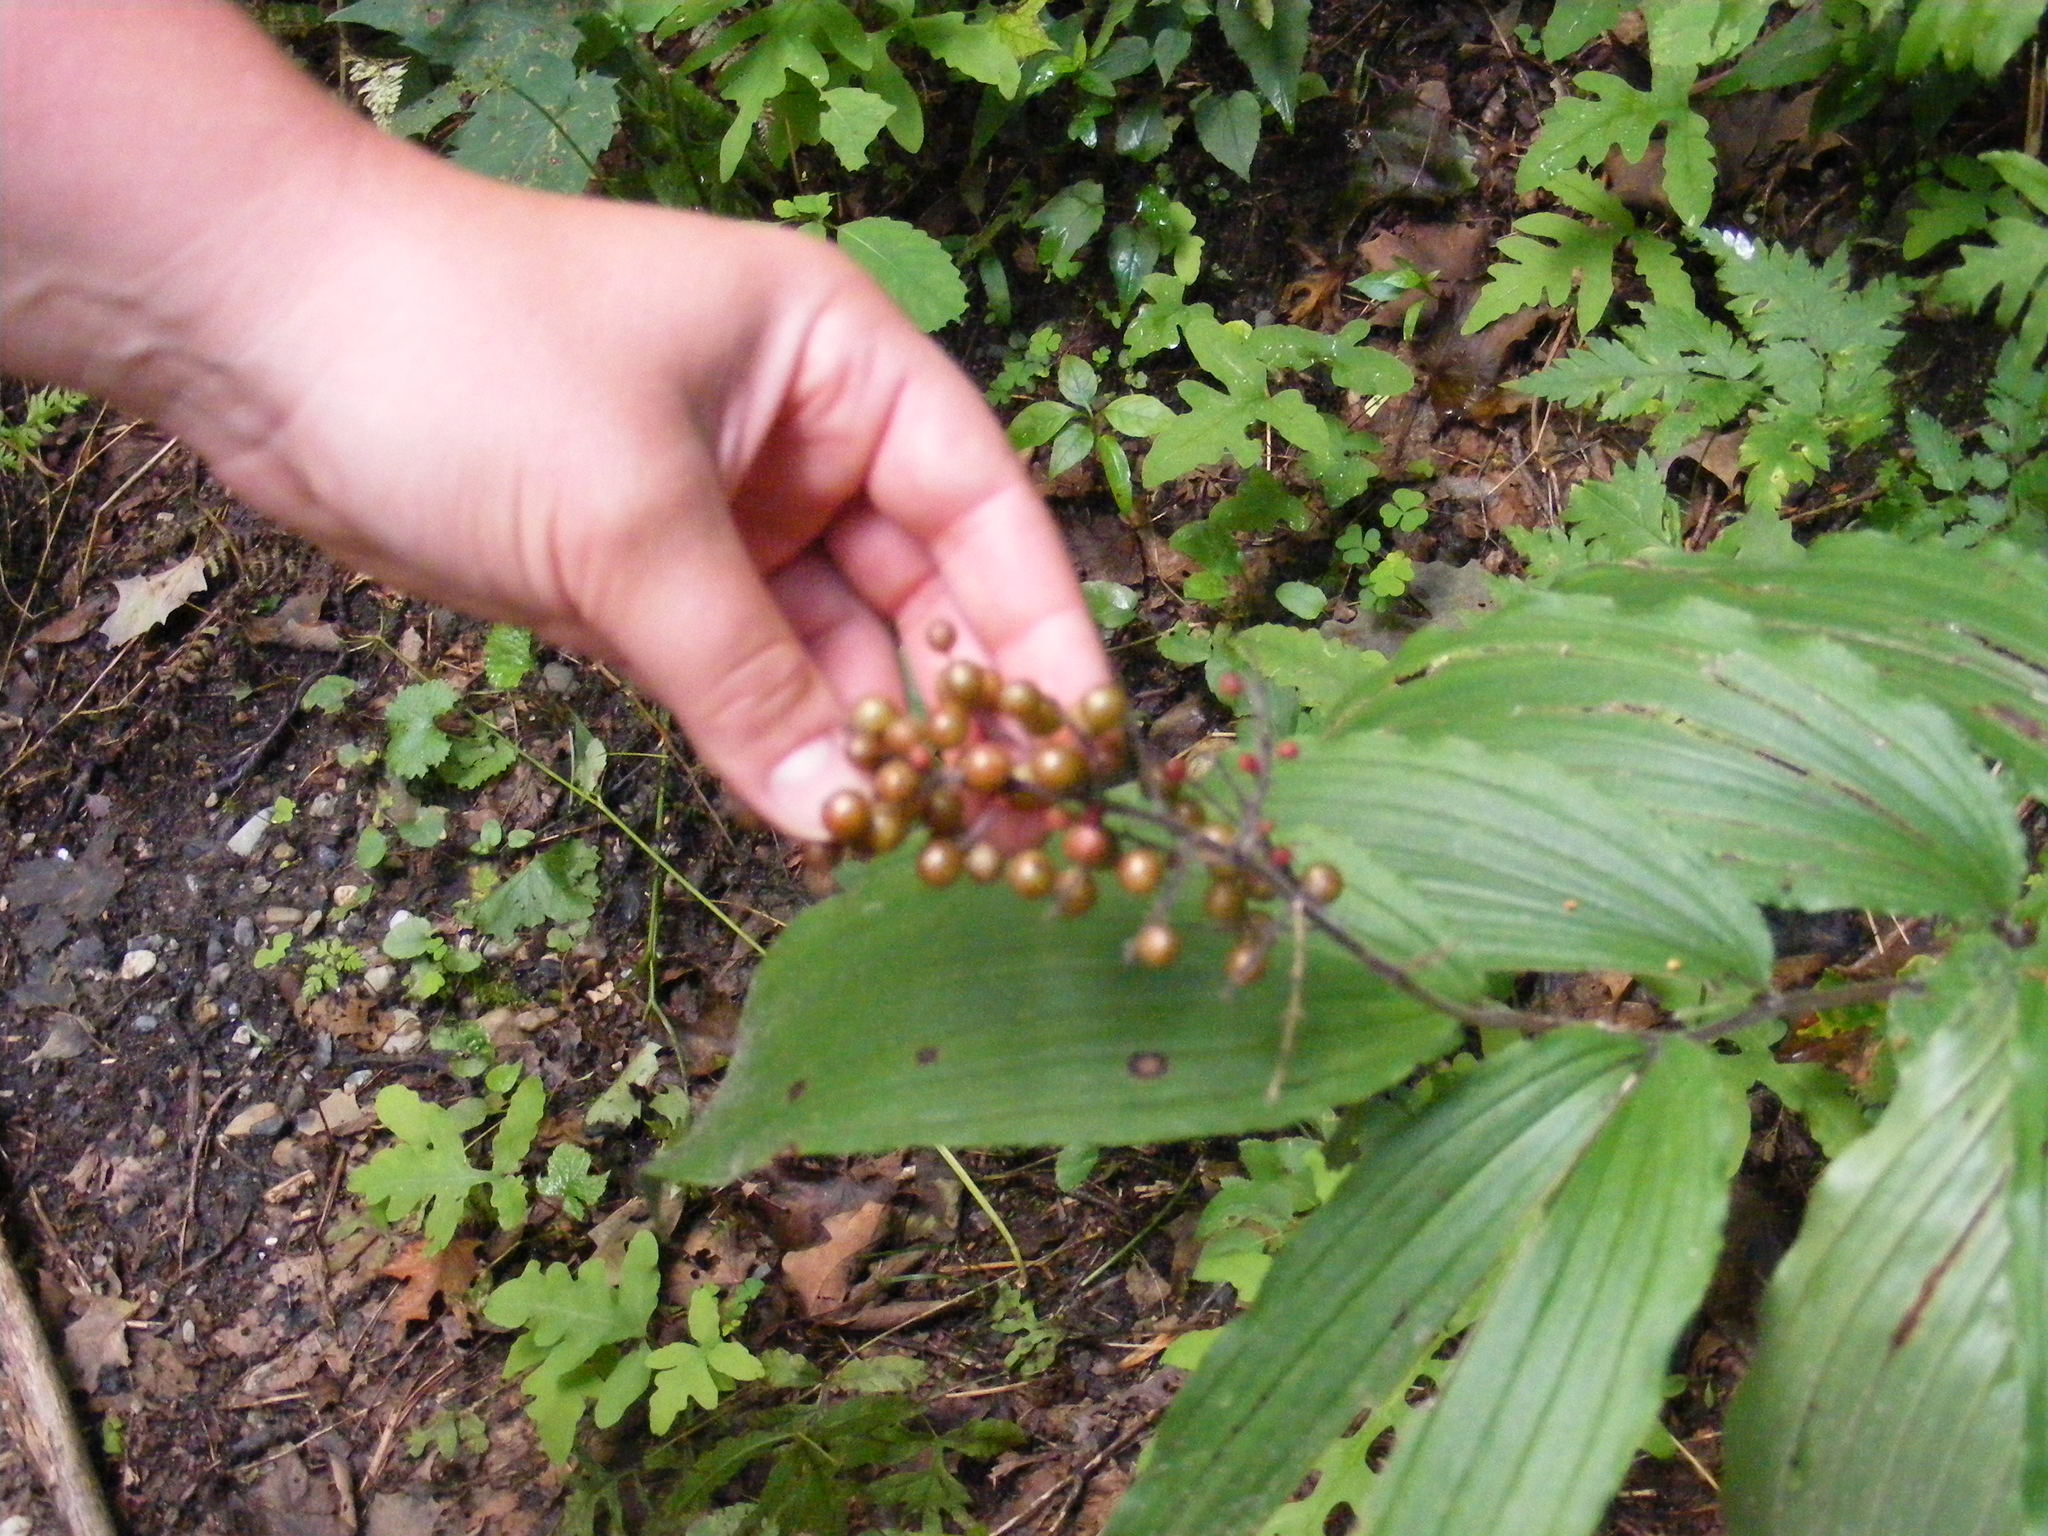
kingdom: Plantae
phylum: Tracheophyta
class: Liliopsida
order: Asparagales
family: Asparagaceae
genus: Maianthemum
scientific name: Maianthemum racemosum
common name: False spikenard
